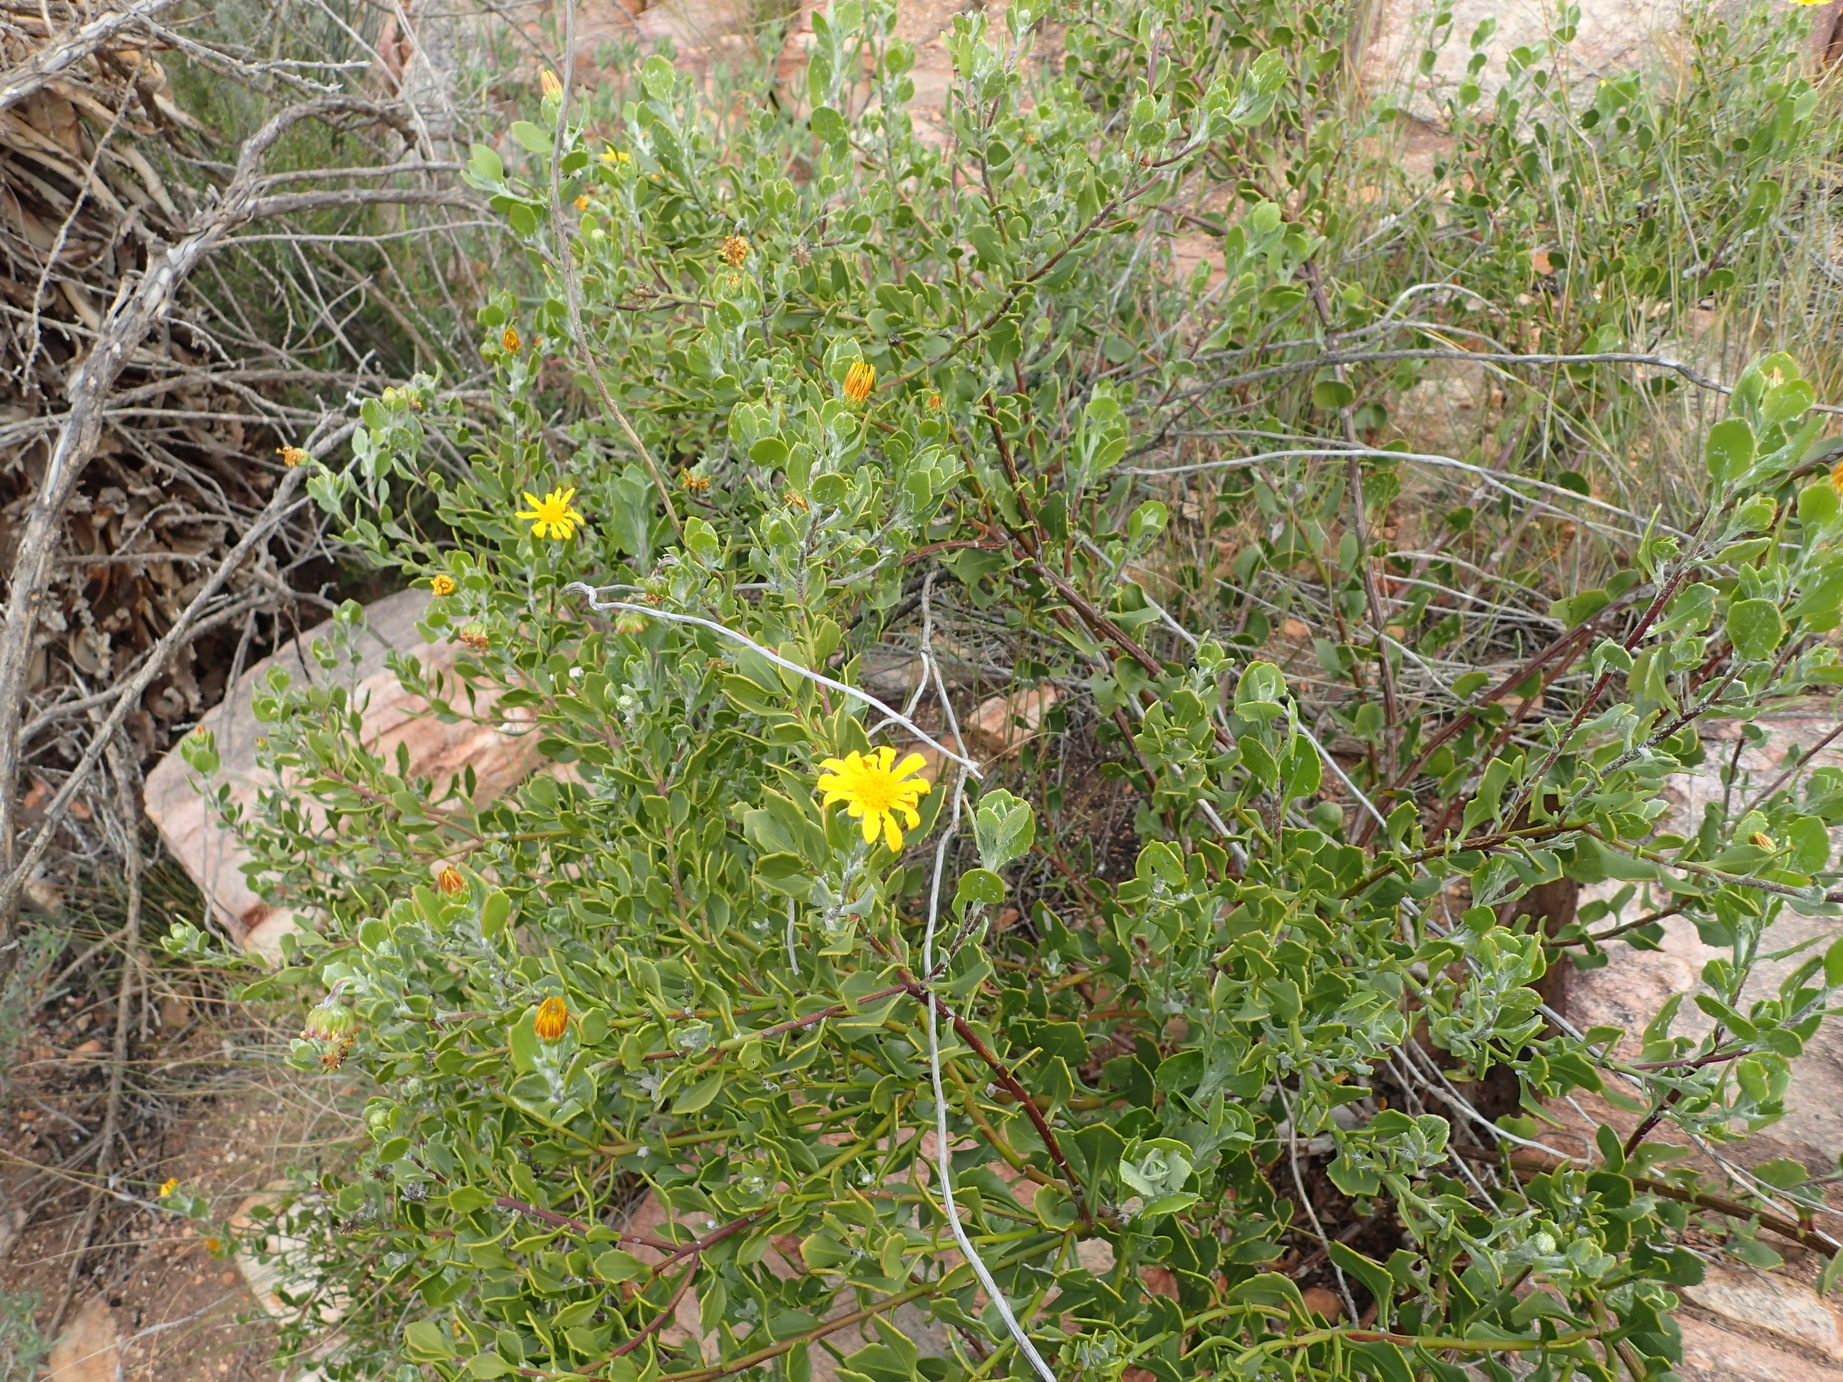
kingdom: Plantae
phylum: Tracheophyta
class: Magnoliopsida
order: Asterales
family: Asteraceae
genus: Osteospermum
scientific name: Osteospermum moniliferum
